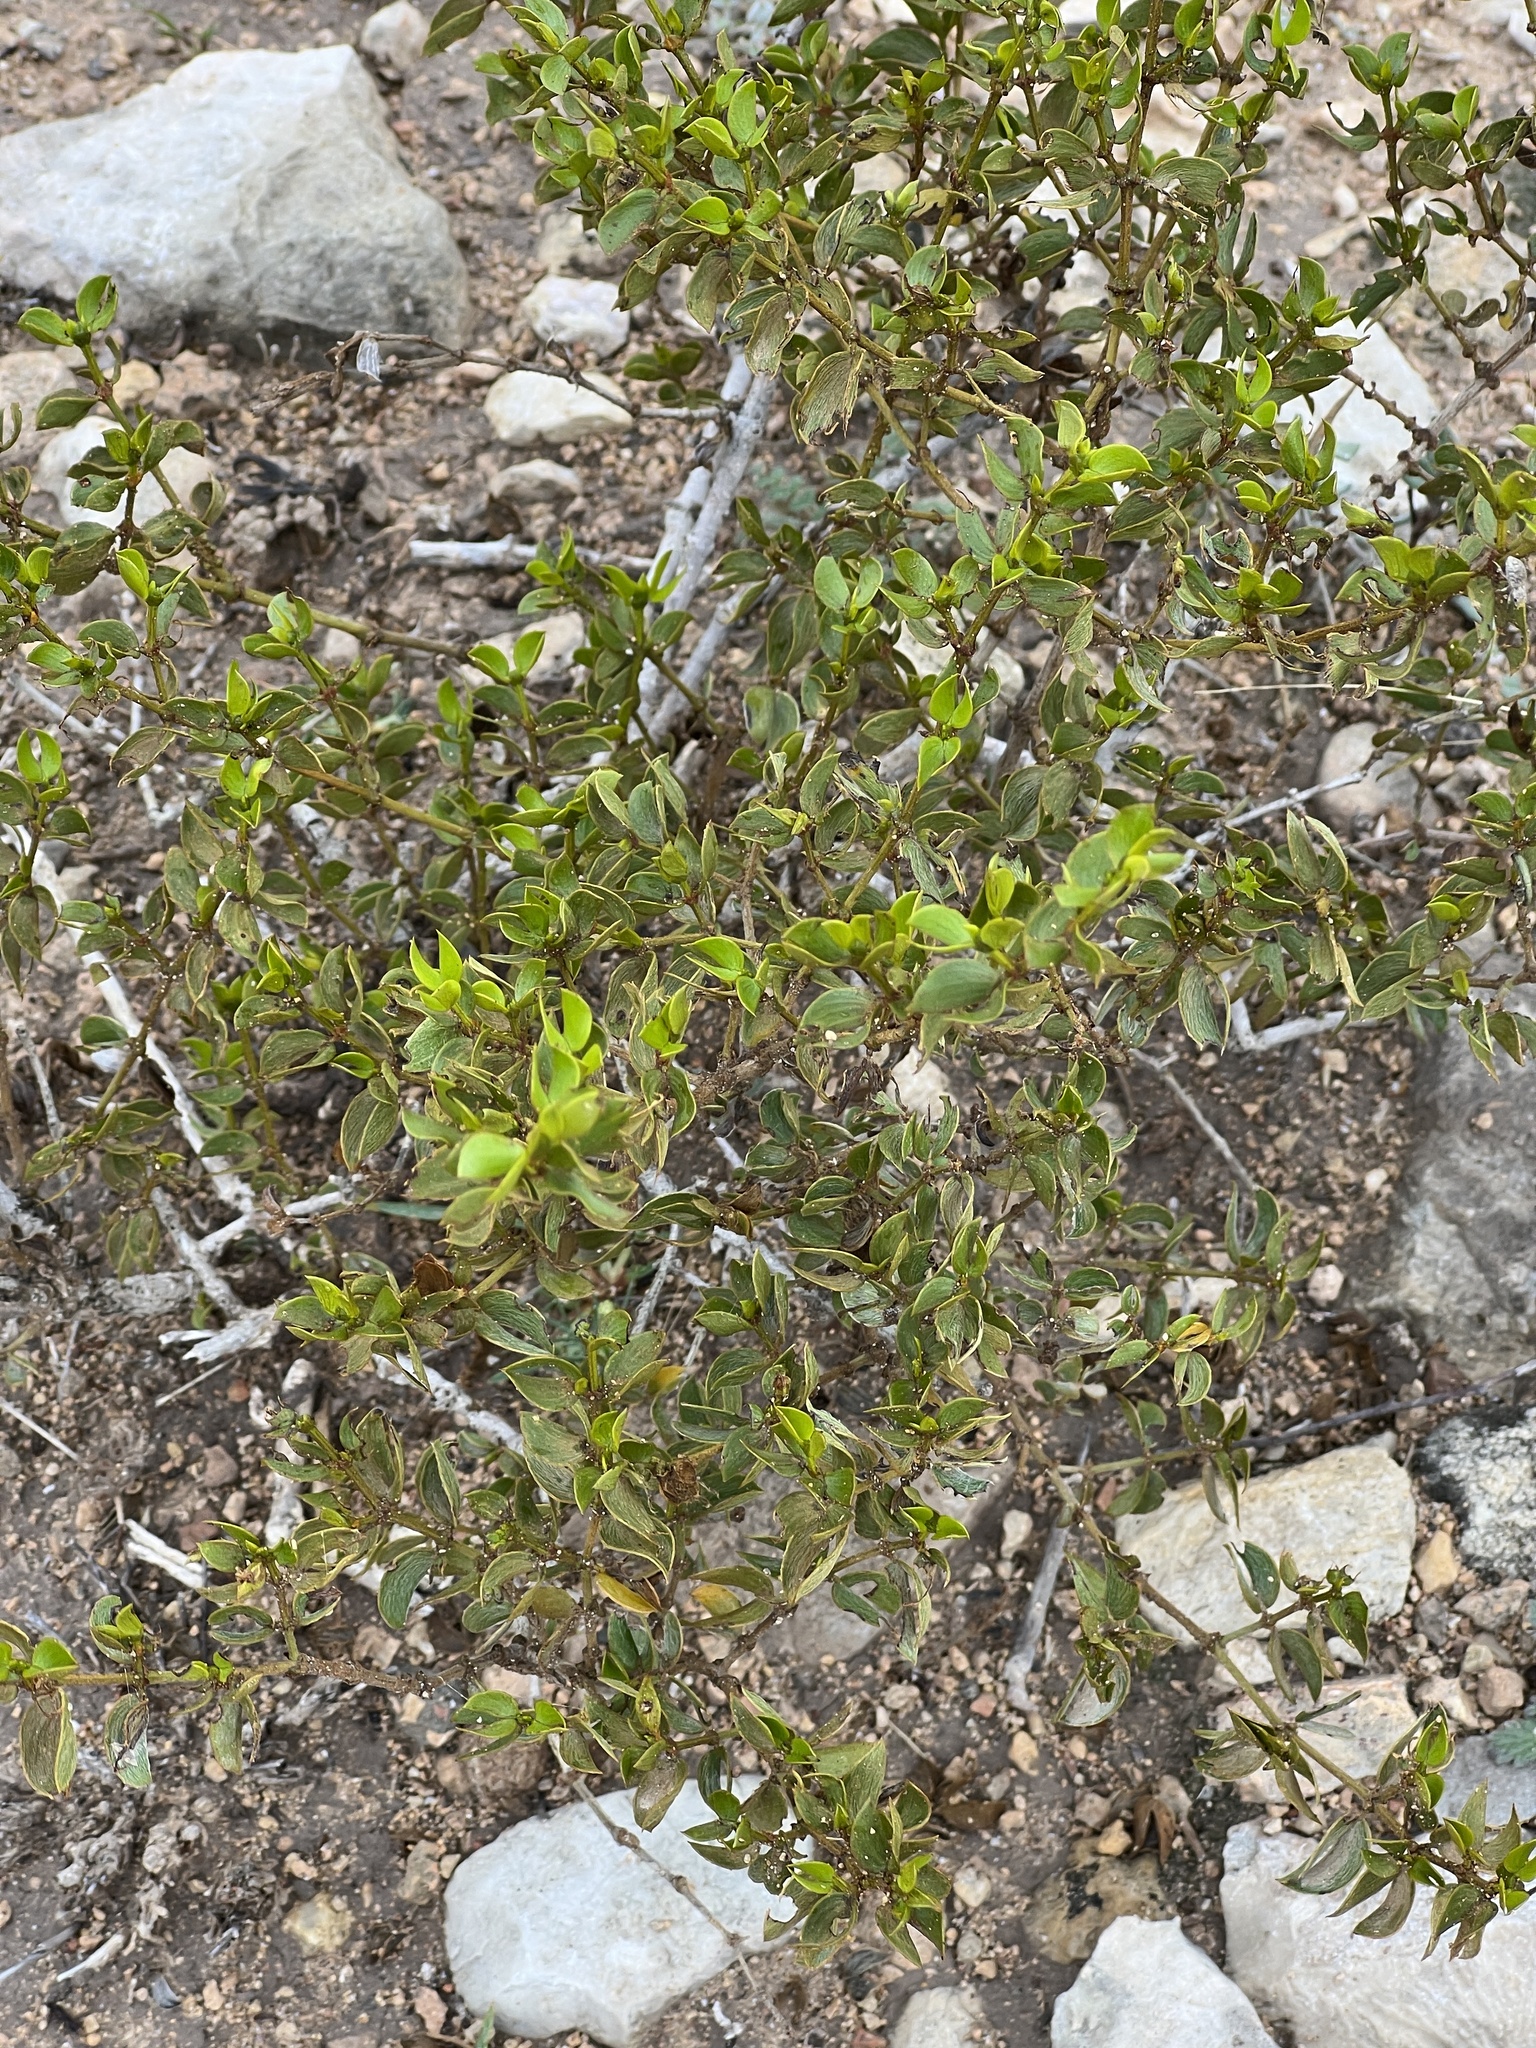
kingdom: Plantae
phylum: Tracheophyta
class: Magnoliopsida
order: Zygophyllales
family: Zygophyllaceae
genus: Larrea
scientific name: Larrea tridentata
